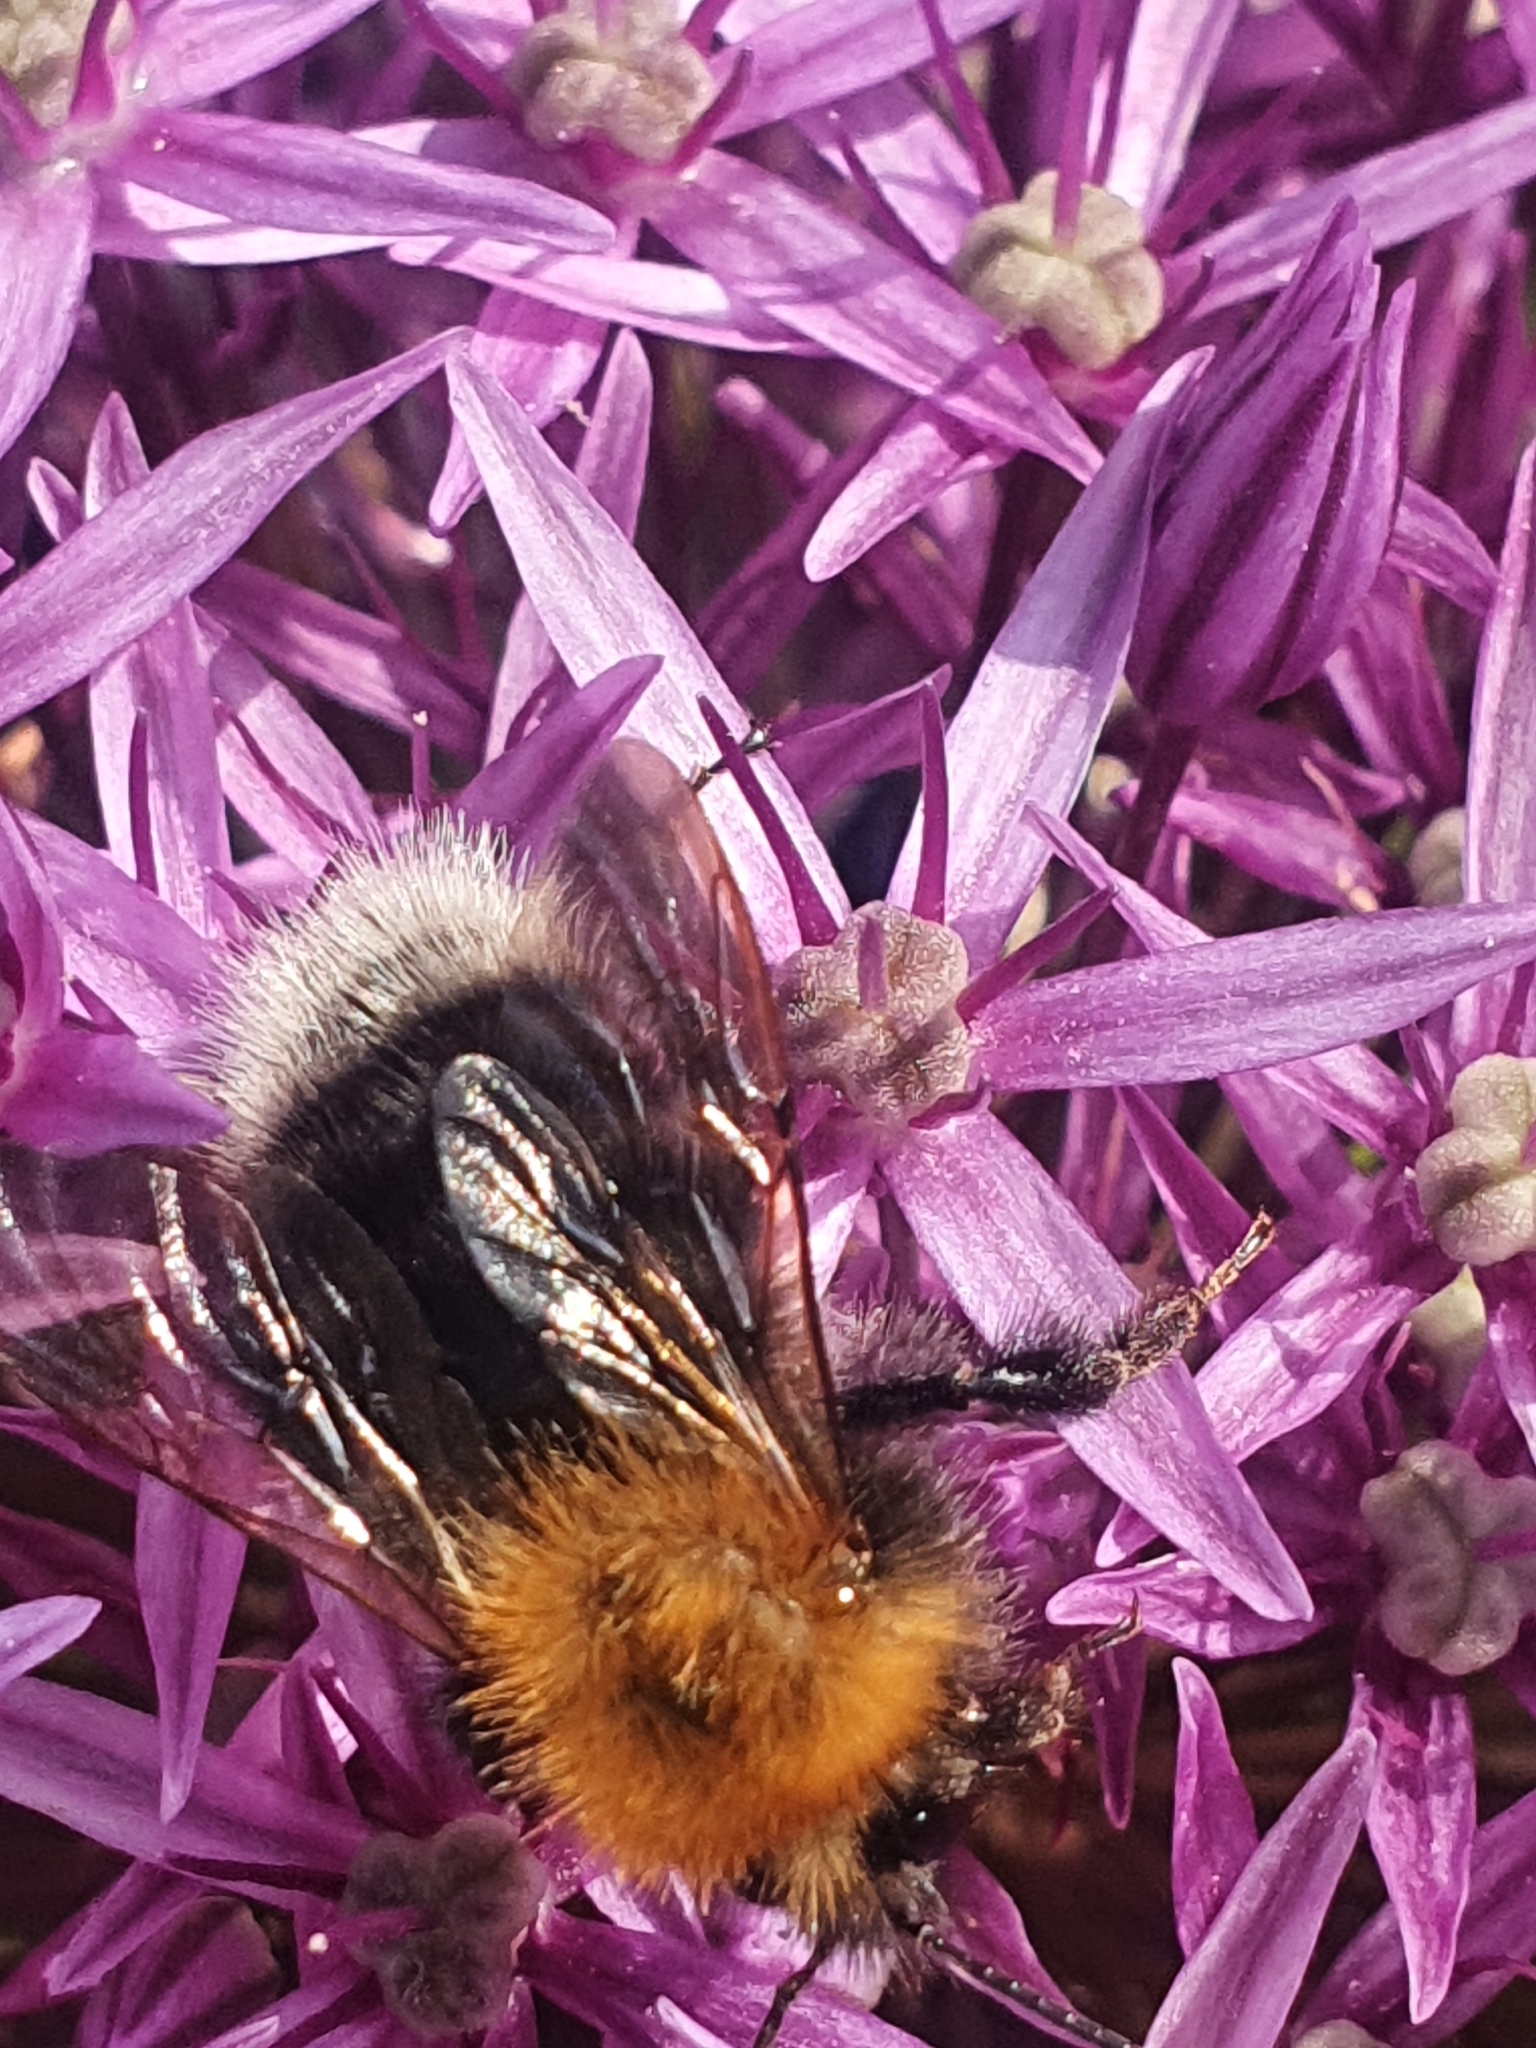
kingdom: Animalia
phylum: Arthropoda
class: Insecta
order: Hymenoptera
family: Apidae
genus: Bombus
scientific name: Bombus hypnorum
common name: New garden bumblebee
